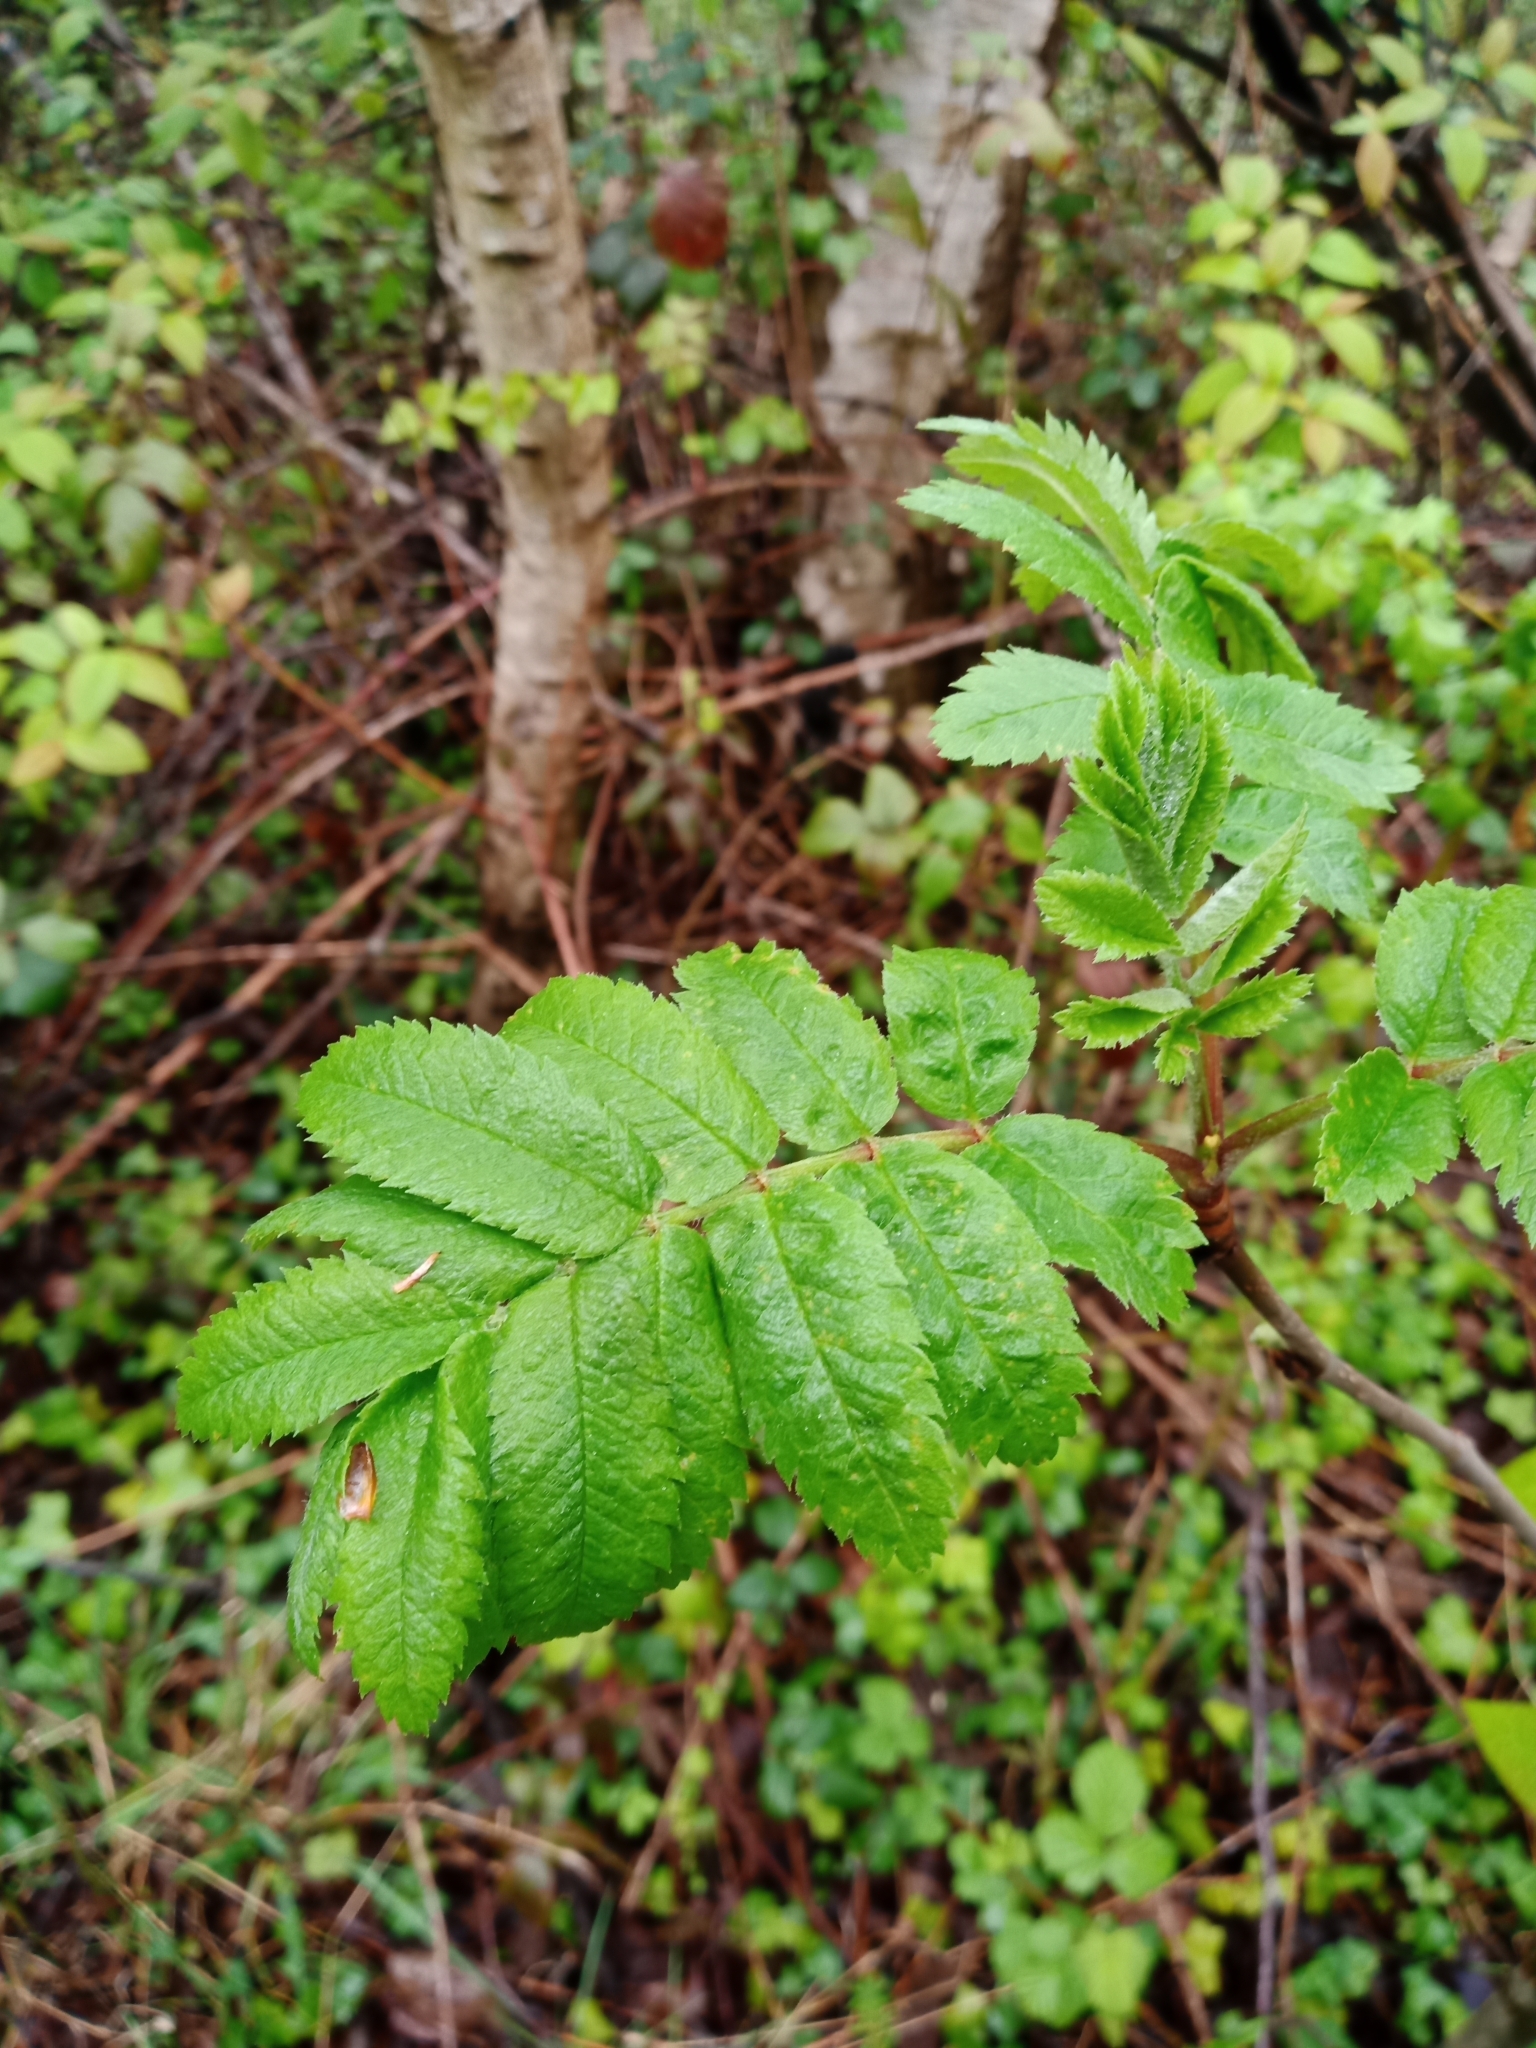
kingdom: Plantae
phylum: Tracheophyta
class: Magnoliopsida
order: Rosales
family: Rosaceae
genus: Sorbus
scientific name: Sorbus aucuparia
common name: Rowan
